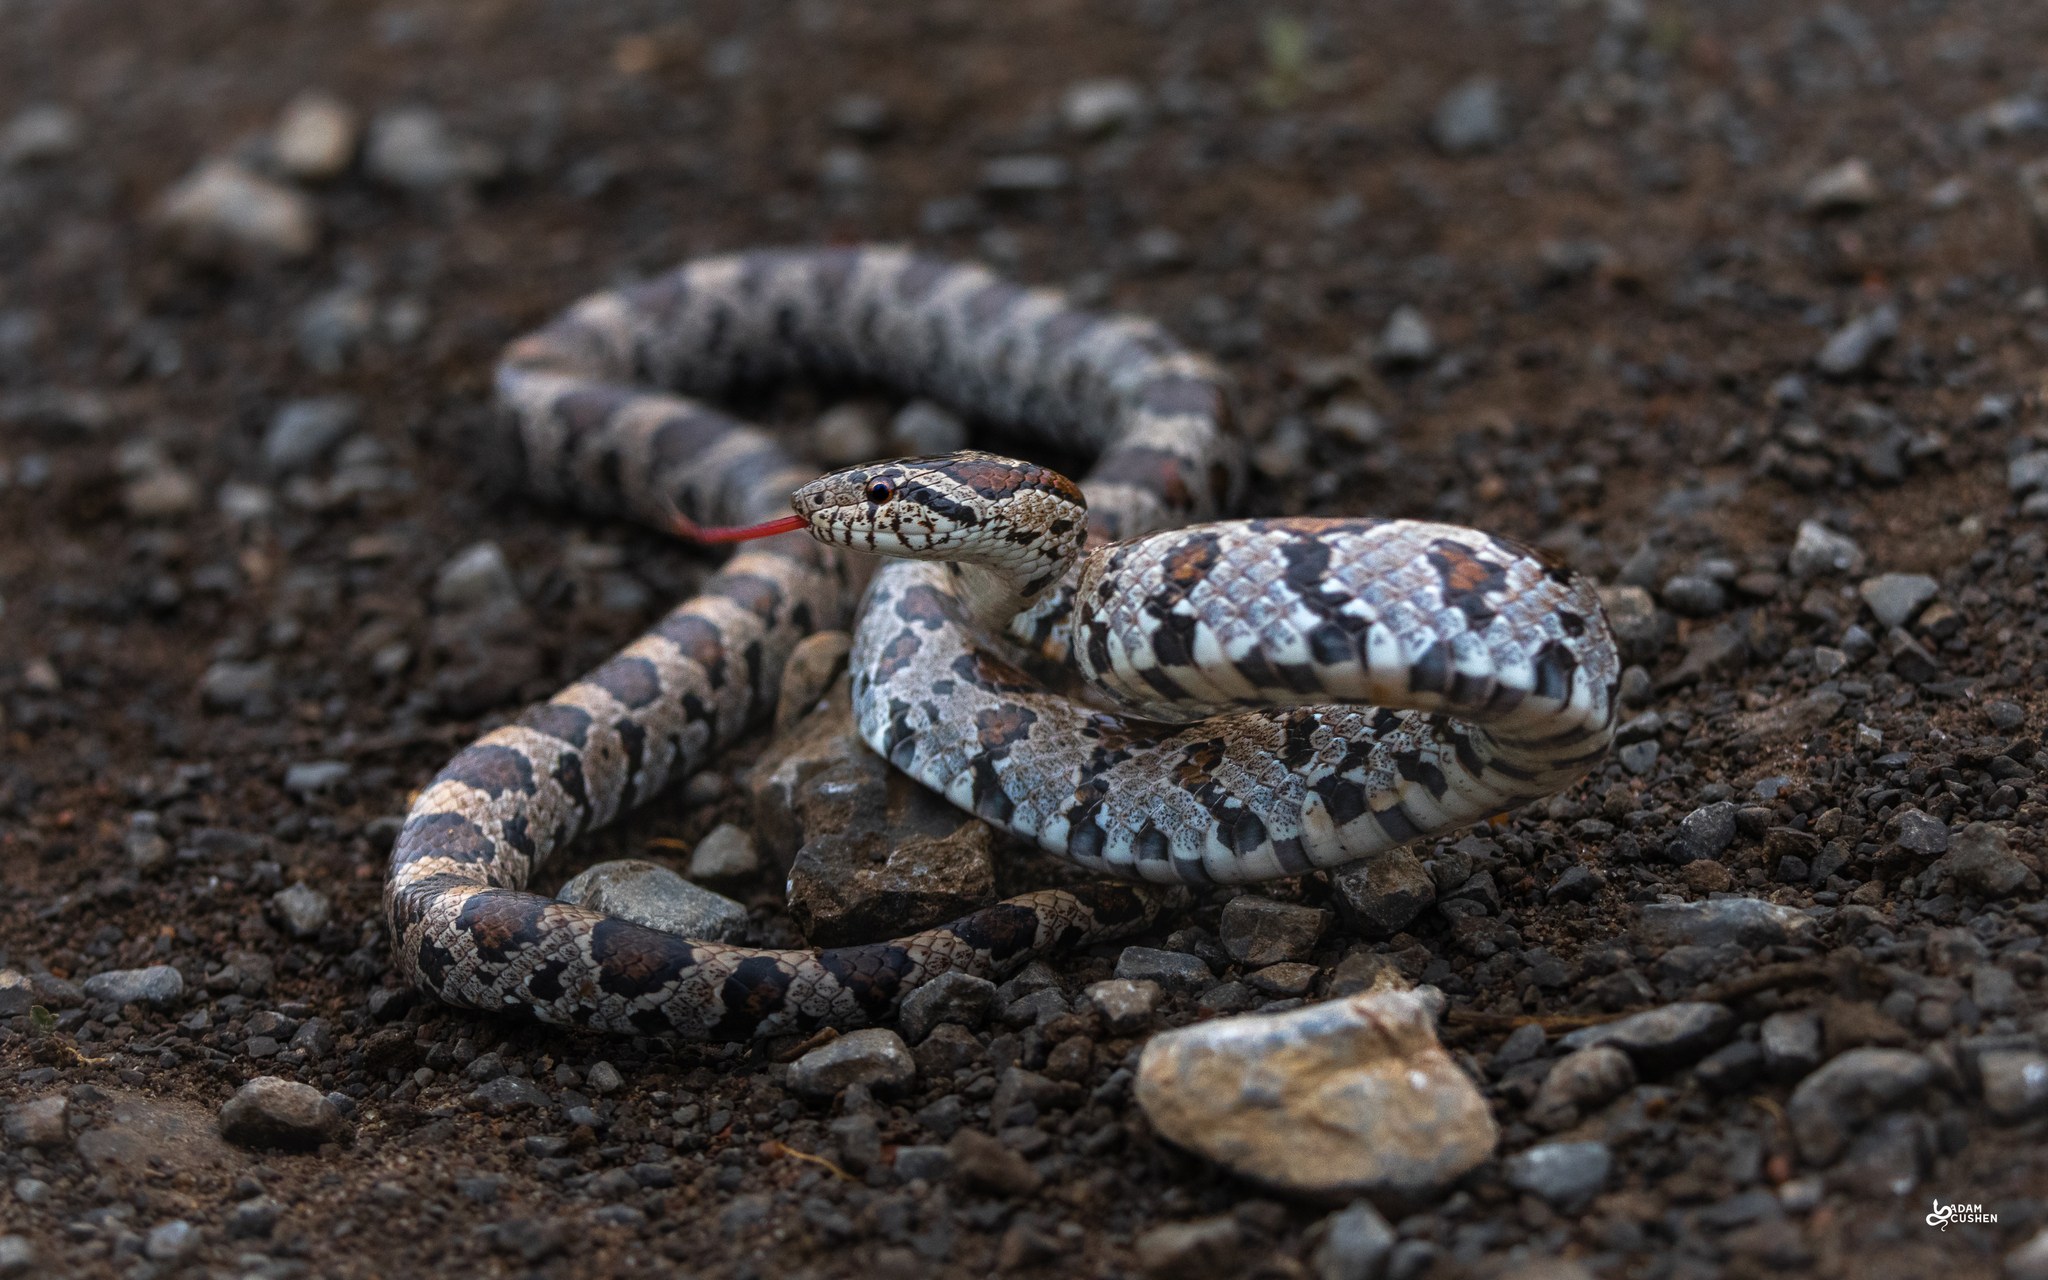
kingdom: Animalia
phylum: Chordata
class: Squamata
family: Colubridae
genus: Lampropeltis
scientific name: Lampropeltis triangulum
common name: Eastern milksnake
